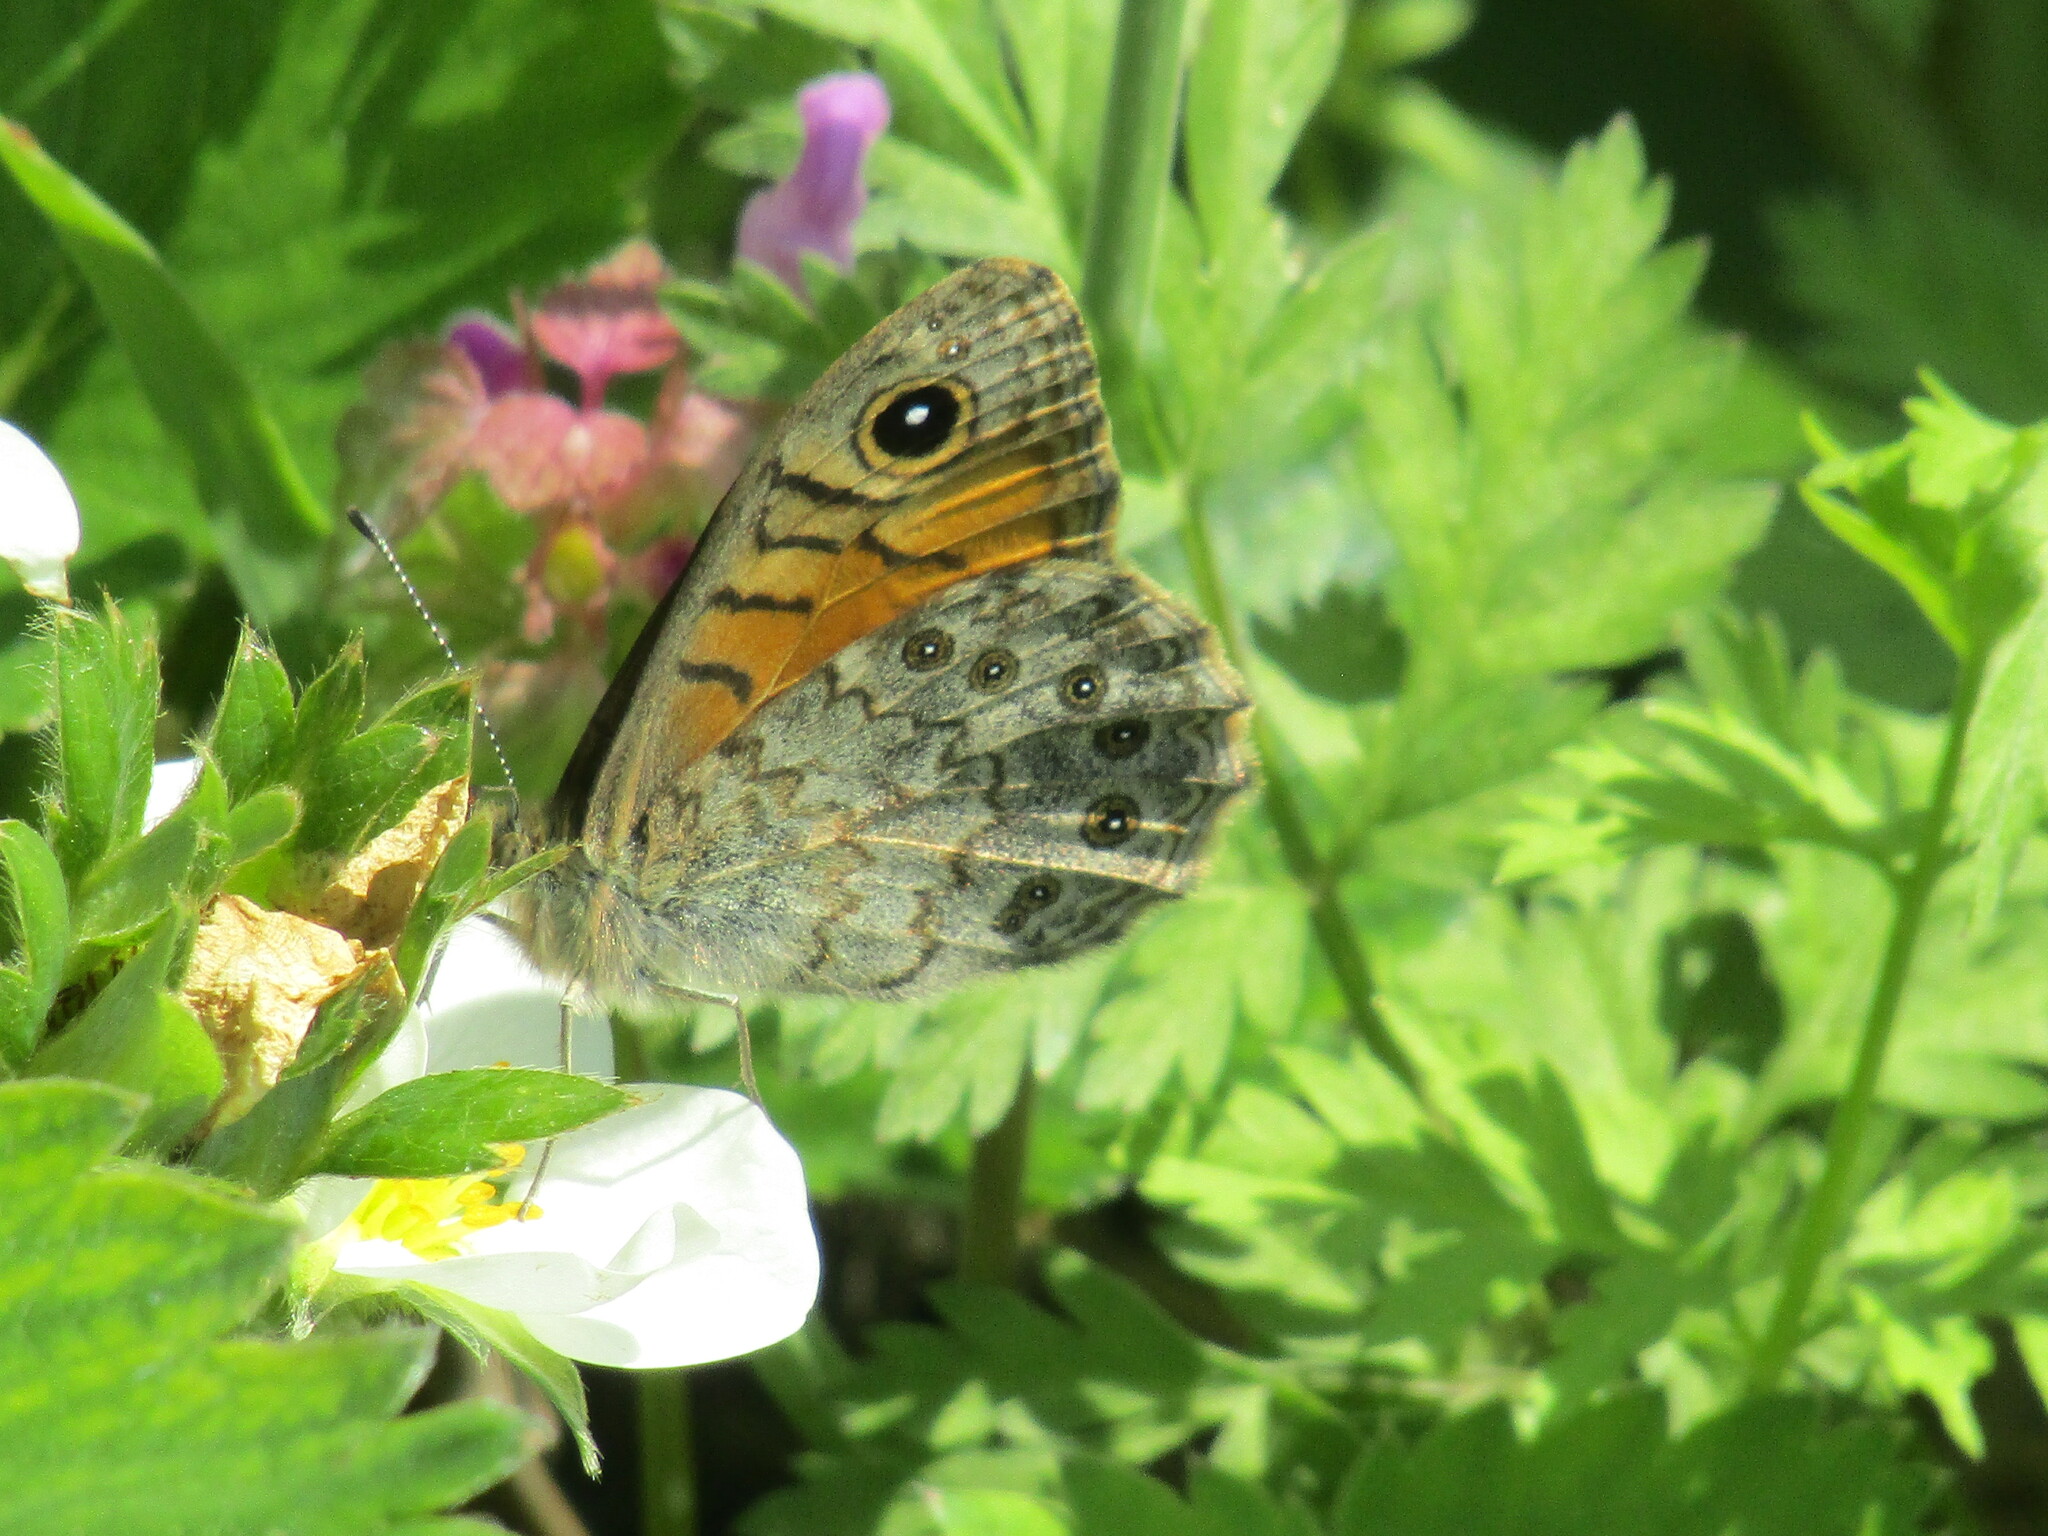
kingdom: Animalia
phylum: Arthropoda
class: Insecta
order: Lepidoptera
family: Nymphalidae
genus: Pararge
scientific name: Pararge Lasiommata megera
